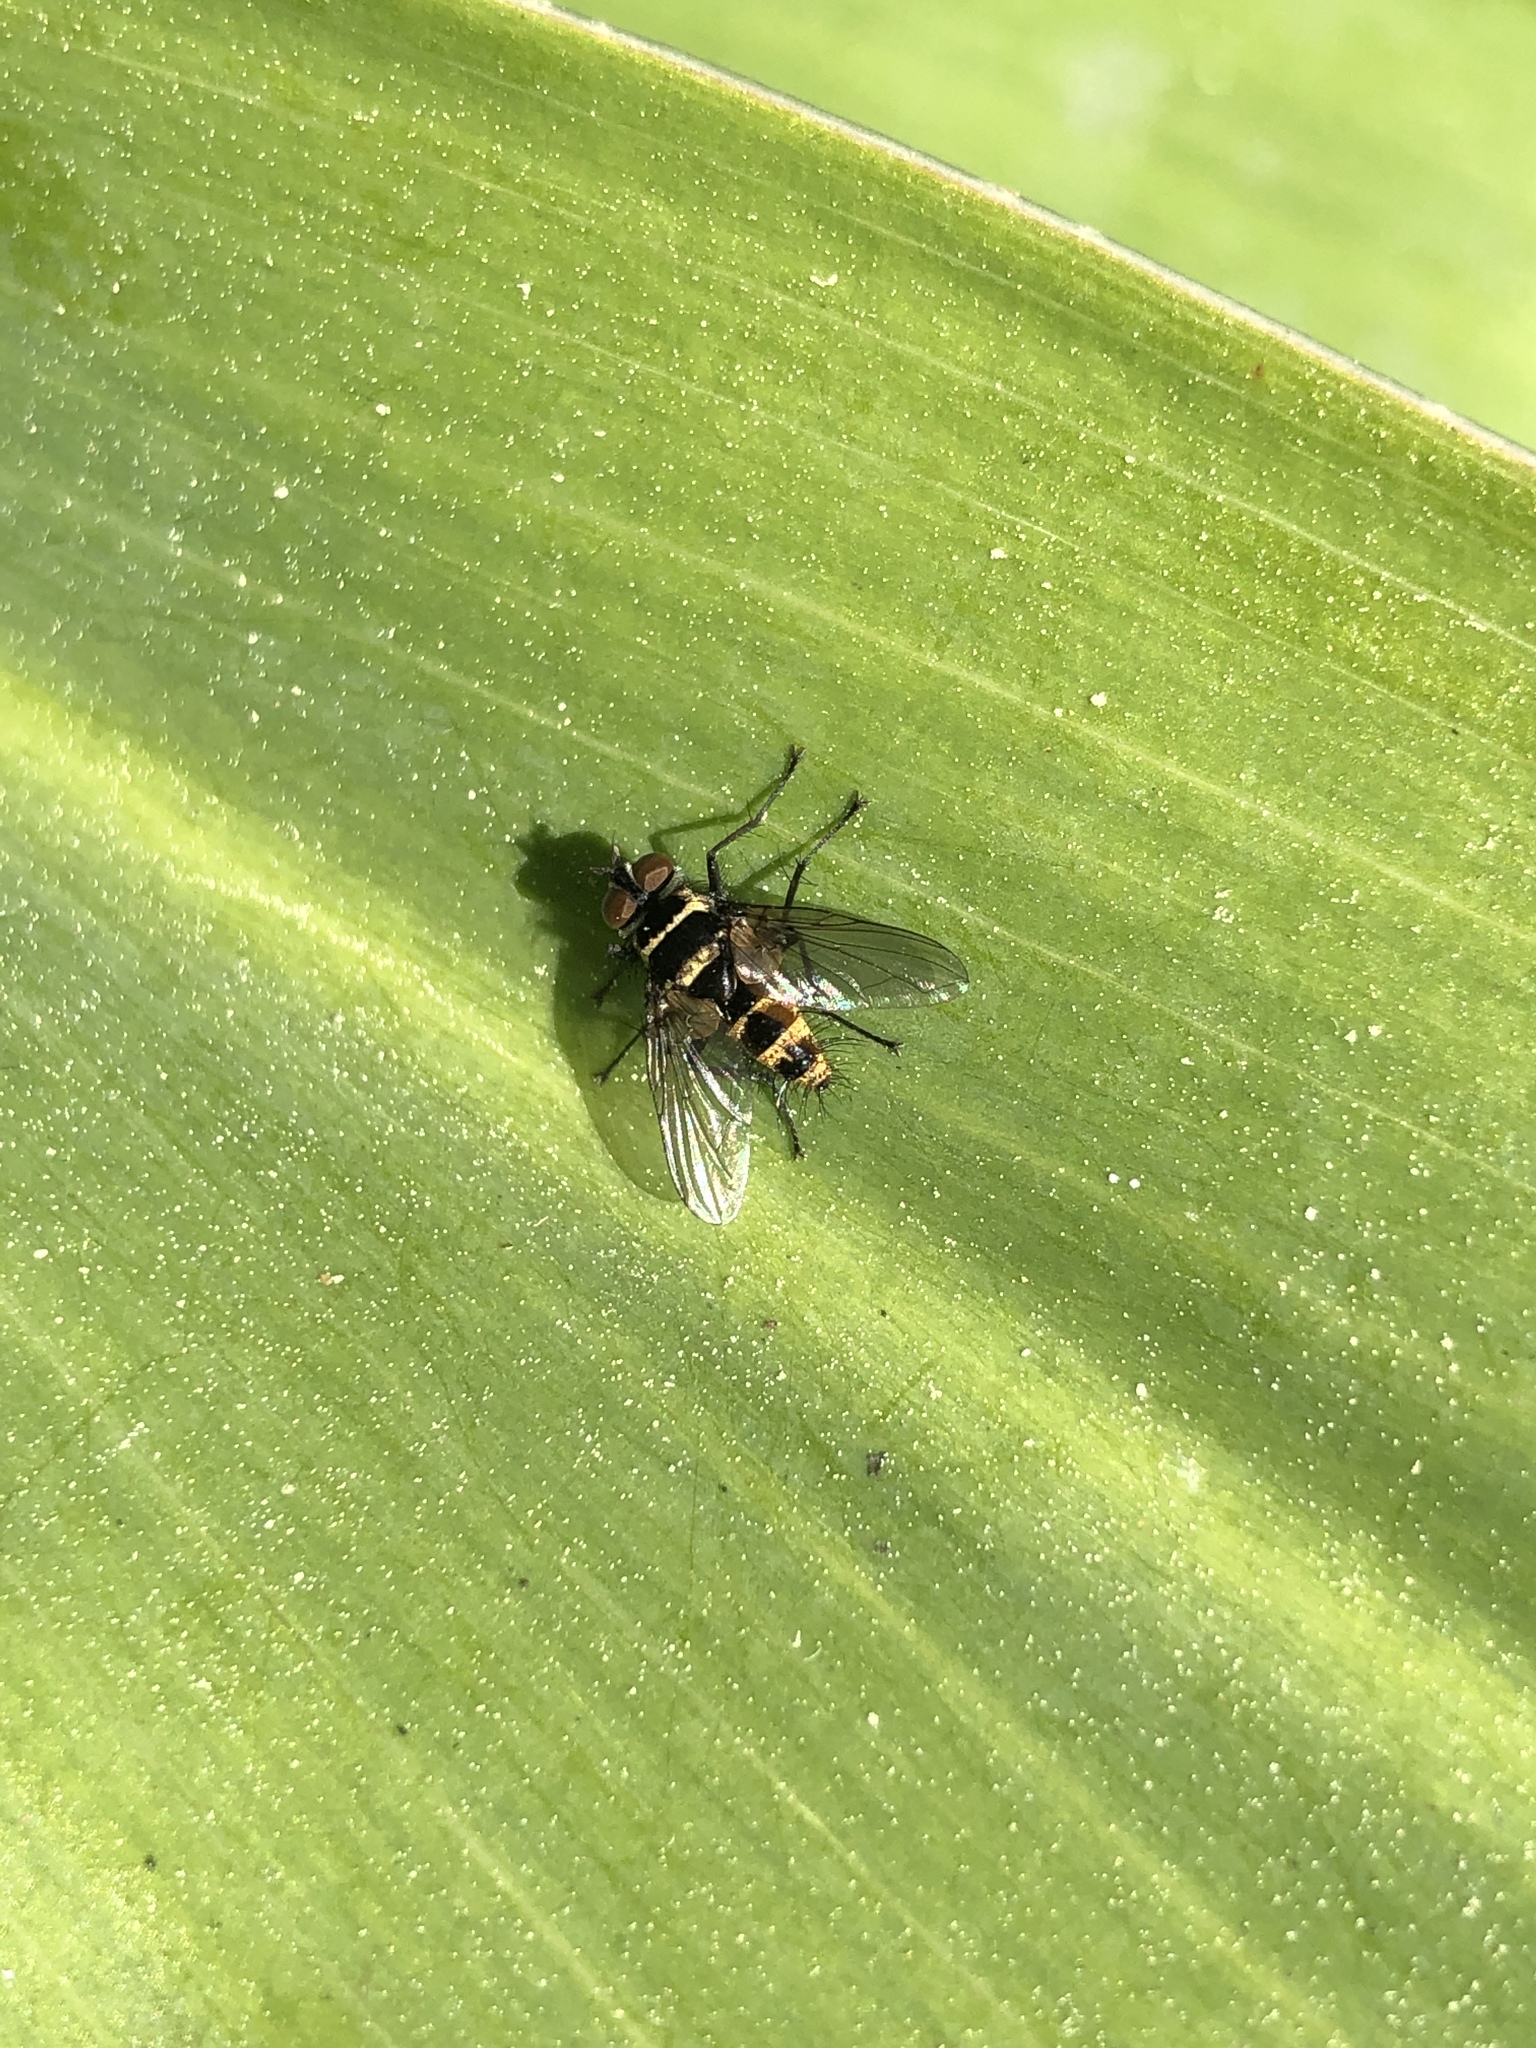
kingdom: Animalia
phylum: Arthropoda
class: Insecta
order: Diptera
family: Tachinidae
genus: Trigonospila
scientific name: Trigonospila brevifacies
